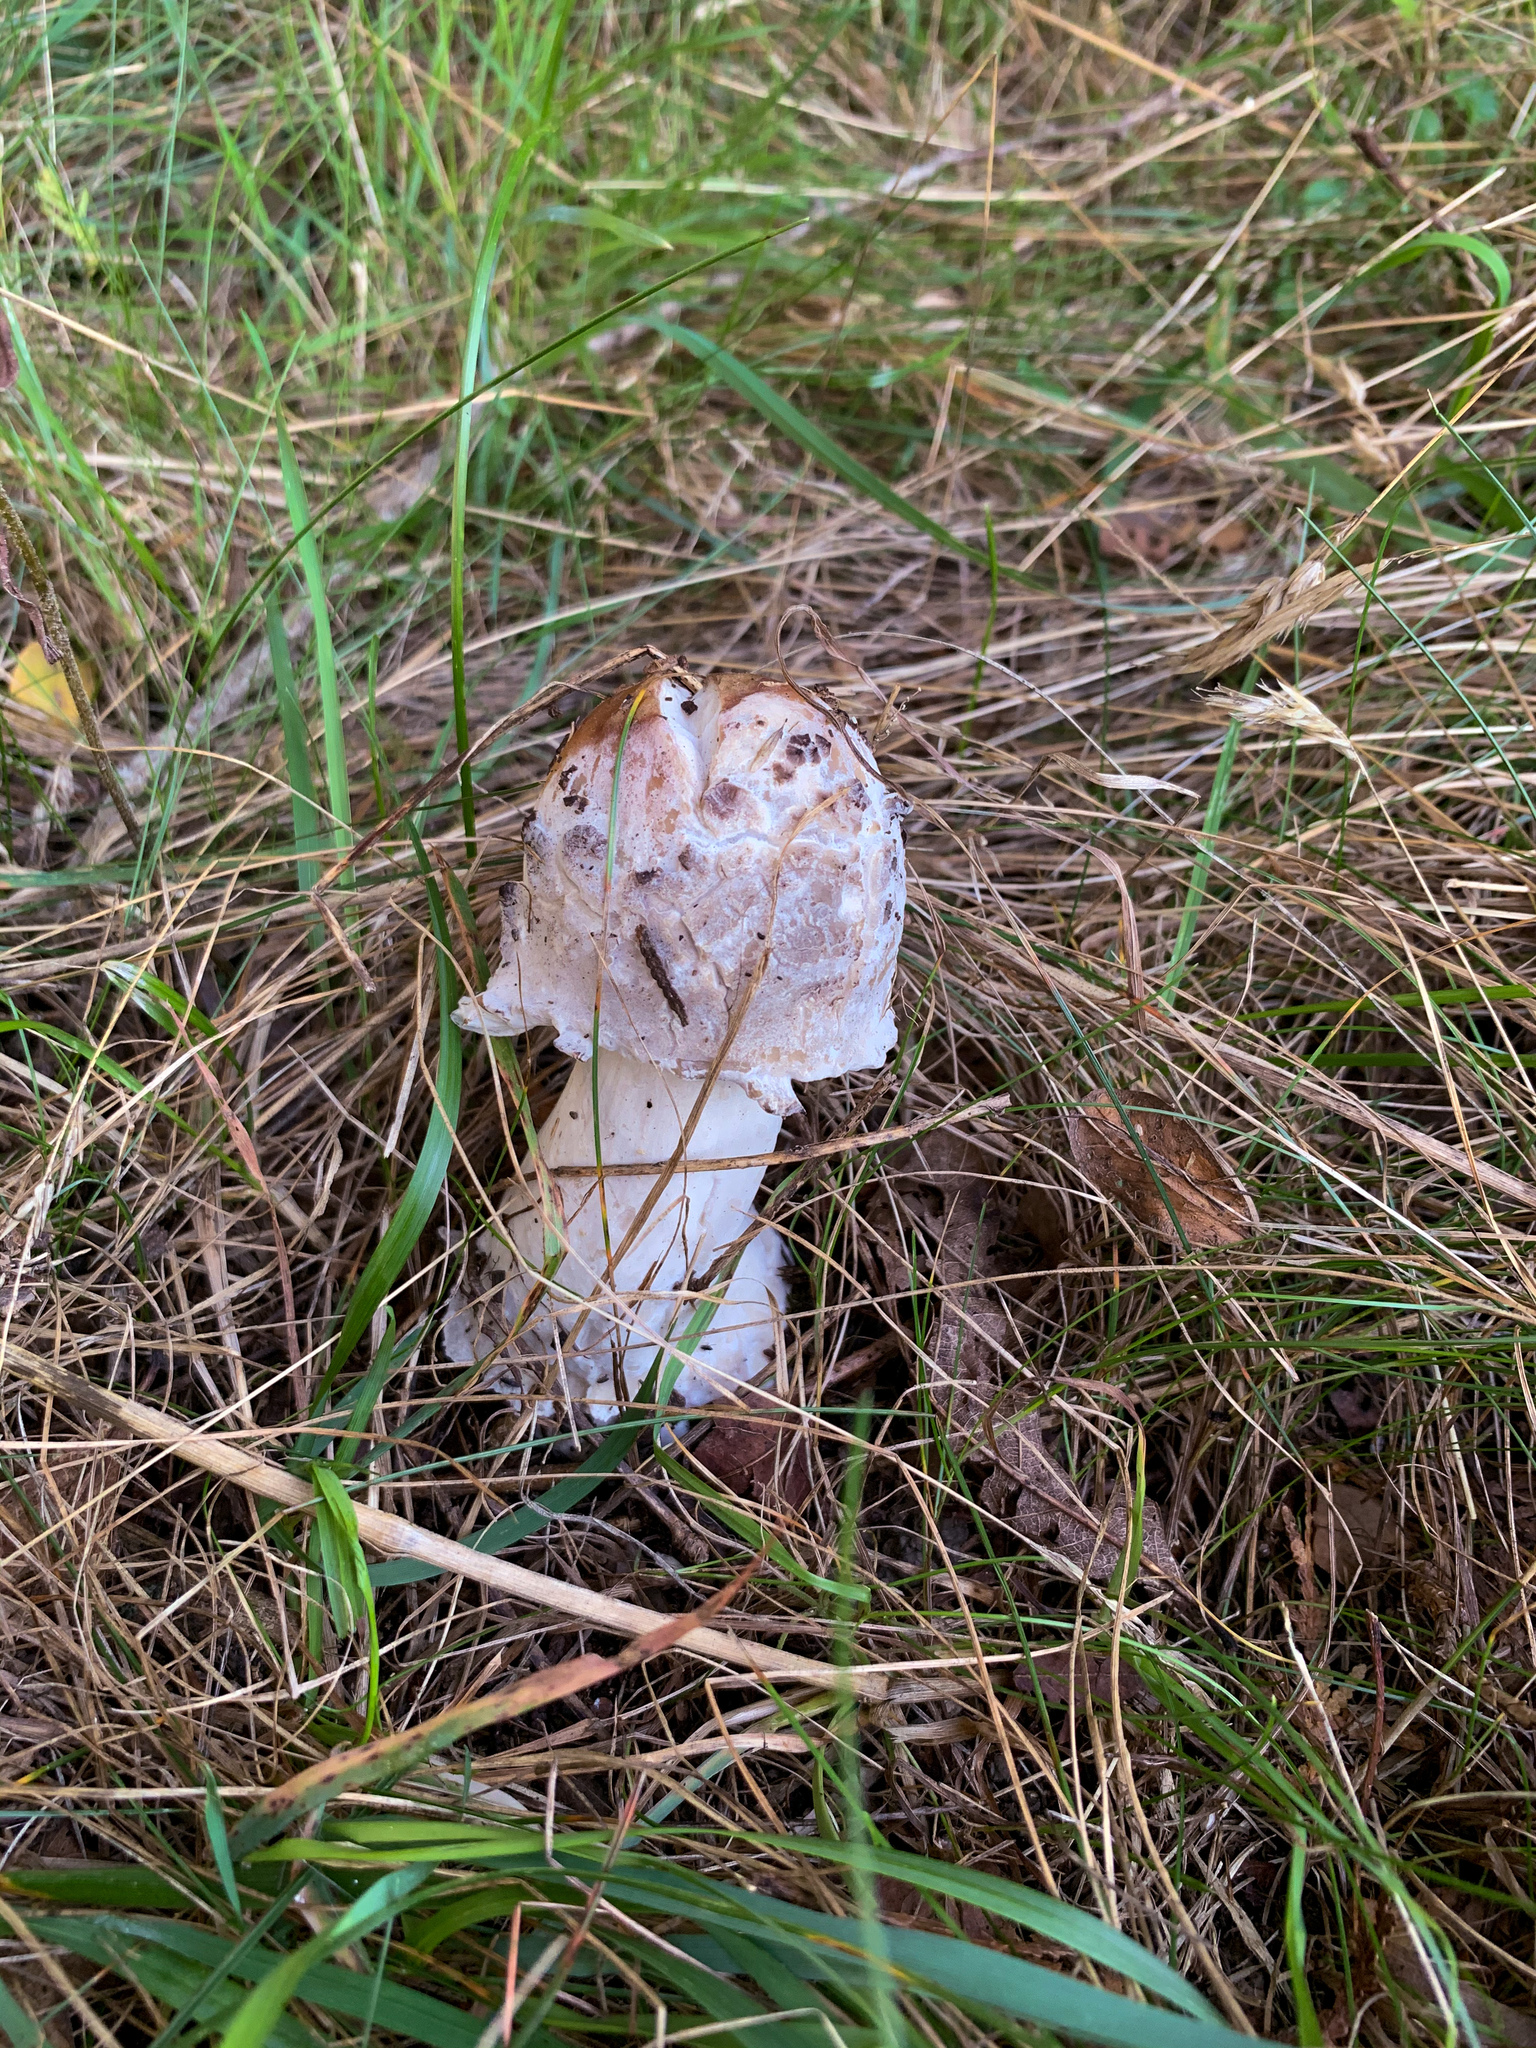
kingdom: Fungi
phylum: Ascomycota
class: Sordariomycetes
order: Hypocreales
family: Hypocreaceae
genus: Hypomyces
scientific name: Hypomyces hyalinus
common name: Amanita mold
